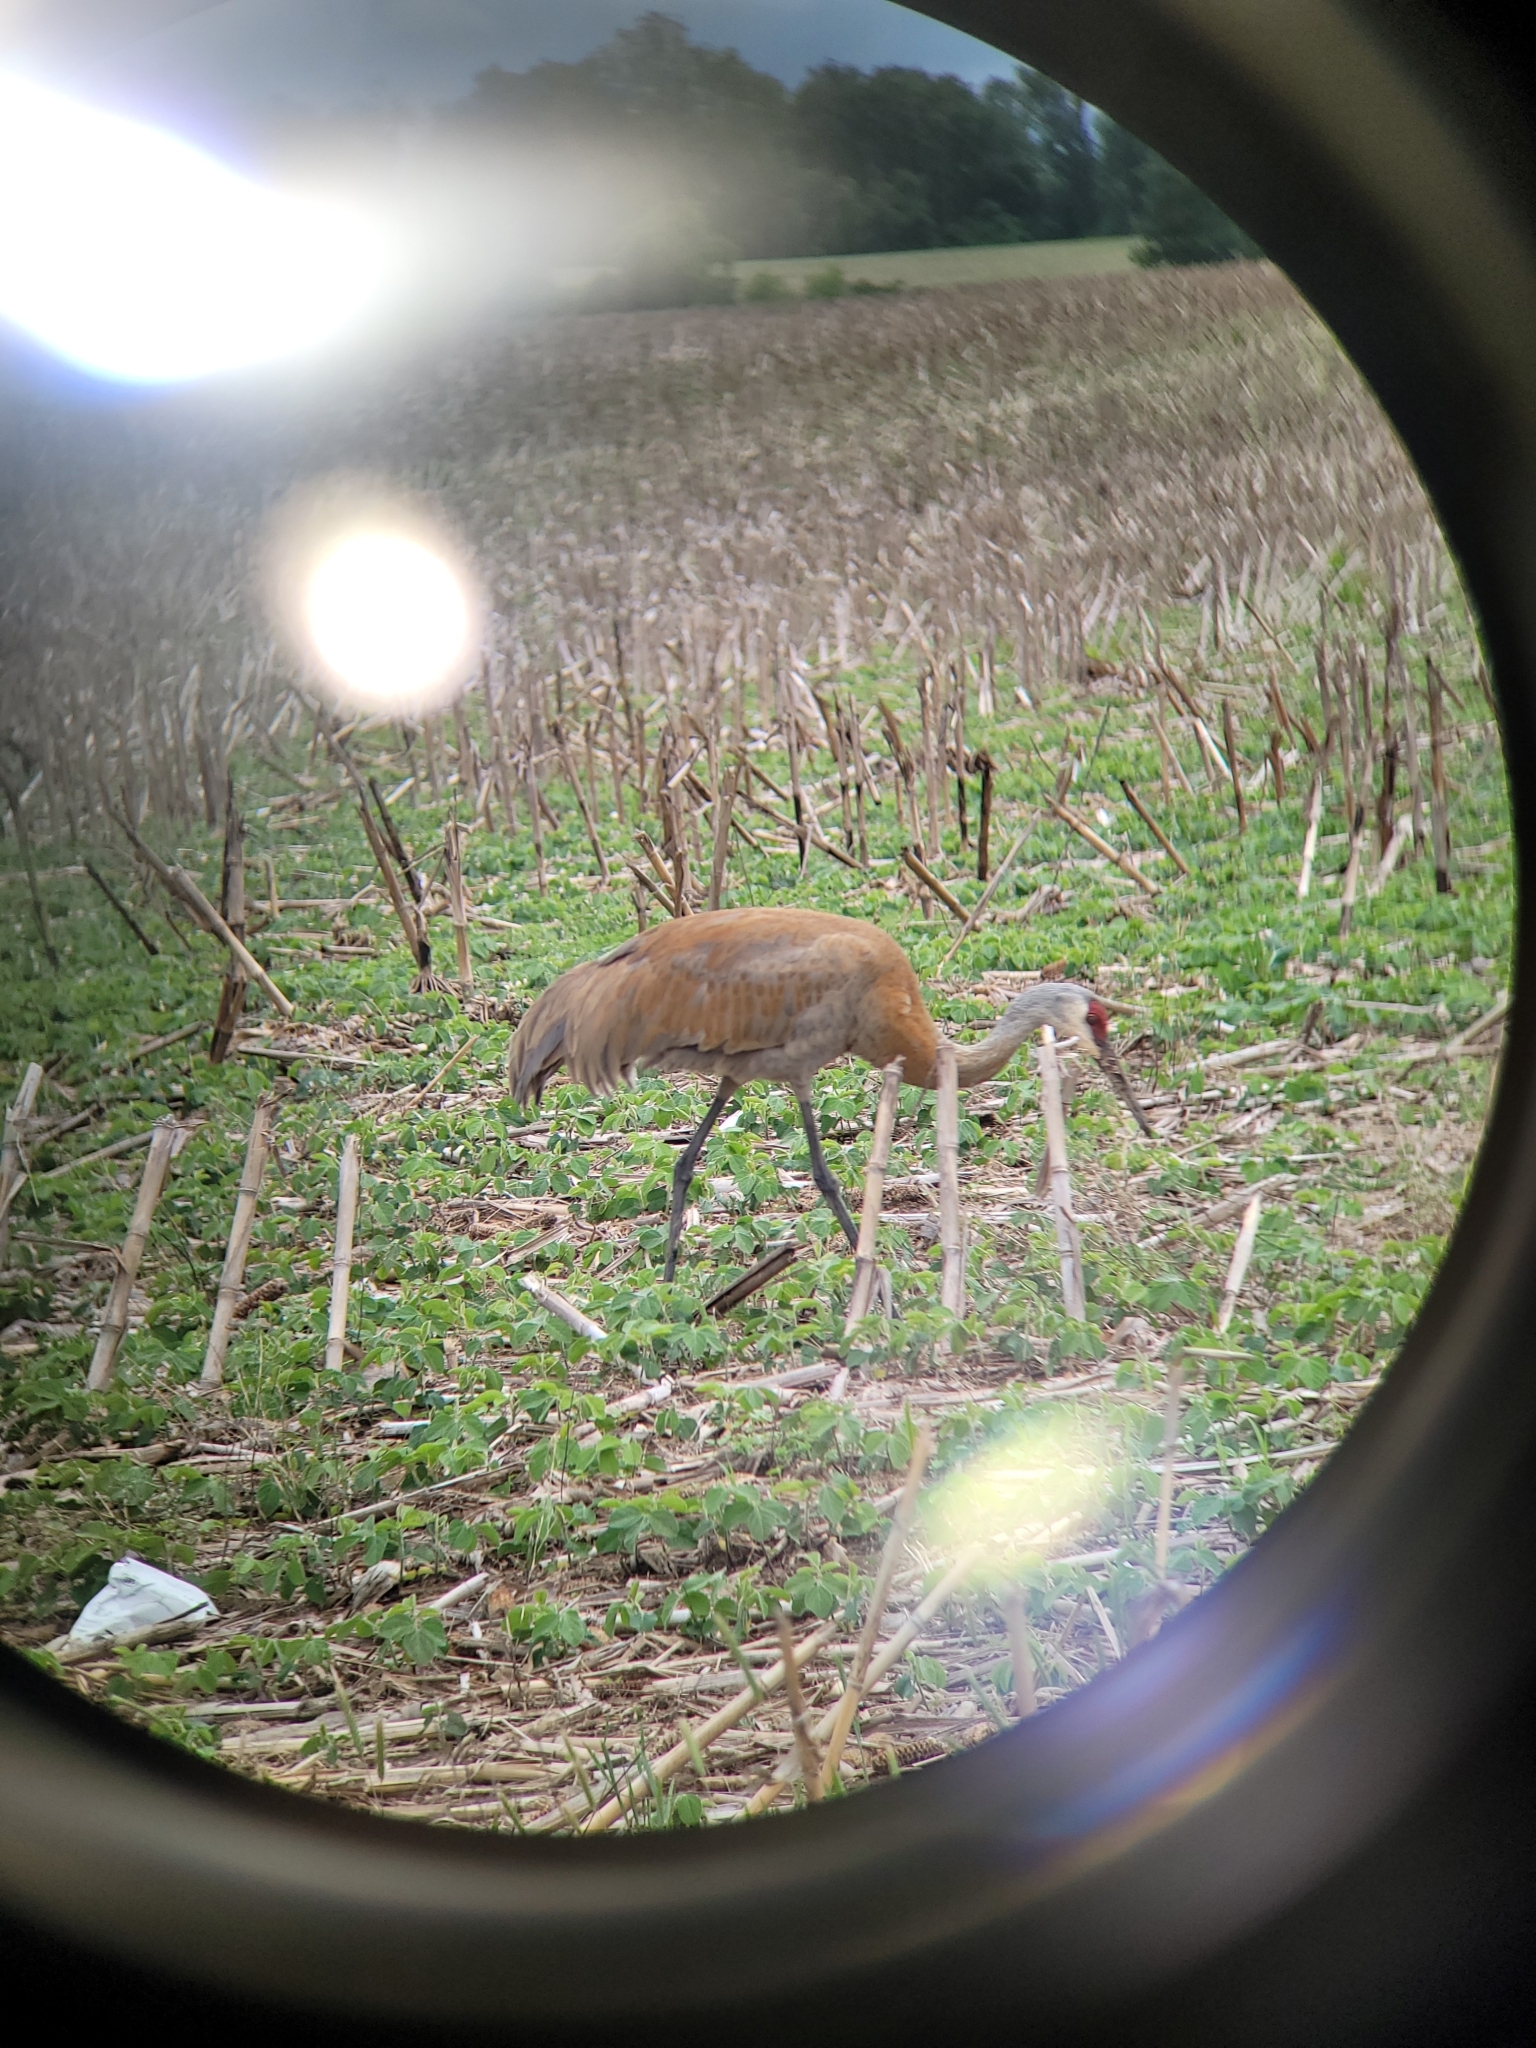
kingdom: Animalia
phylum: Chordata
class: Aves
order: Gruiformes
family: Gruidae
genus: Grus
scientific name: Grus canadensis
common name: Sandhill crane
